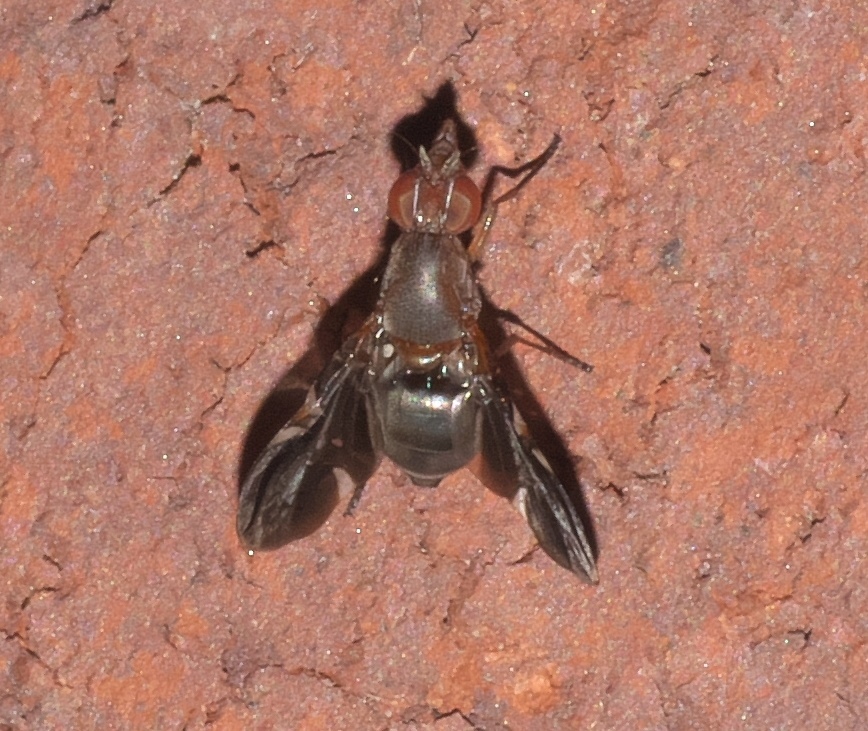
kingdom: Animalia
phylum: Arthropoda
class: Insecta
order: Diptera
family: Ulidiidae
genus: Delphinia
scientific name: Delphinia picta
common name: Common picture-winged fly
